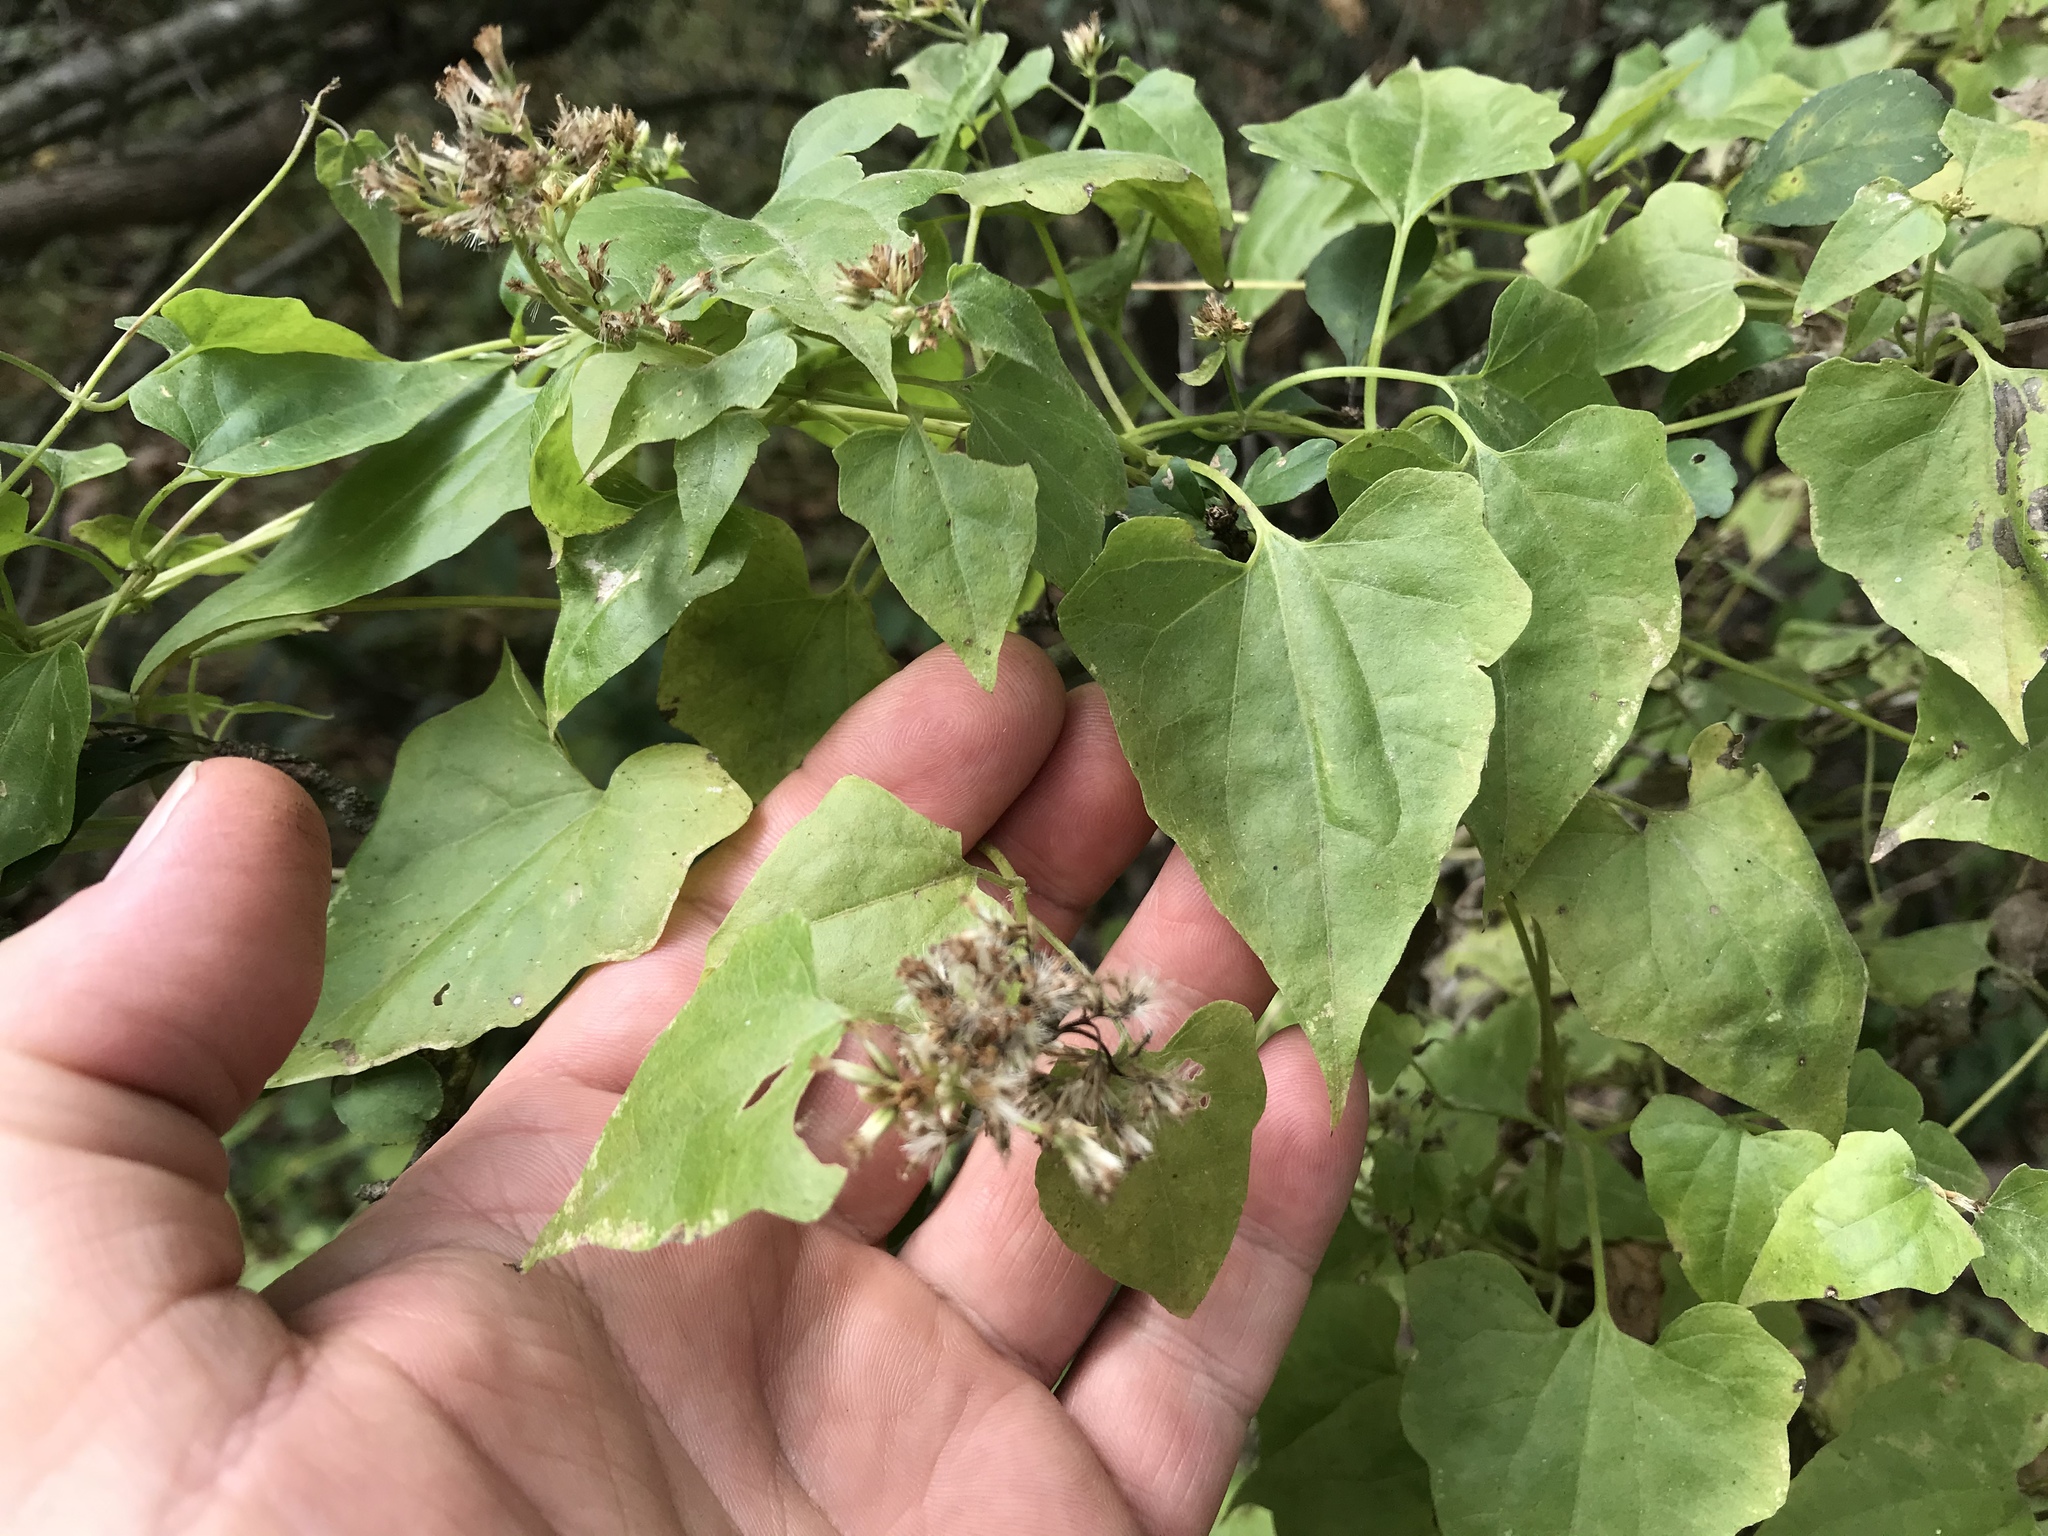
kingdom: Plantae
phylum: Tracheophyta
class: Magnoliopsida
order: Asterales
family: Asteraceae
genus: Mikania
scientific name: Mikania scandens
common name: Climbing hempvine
